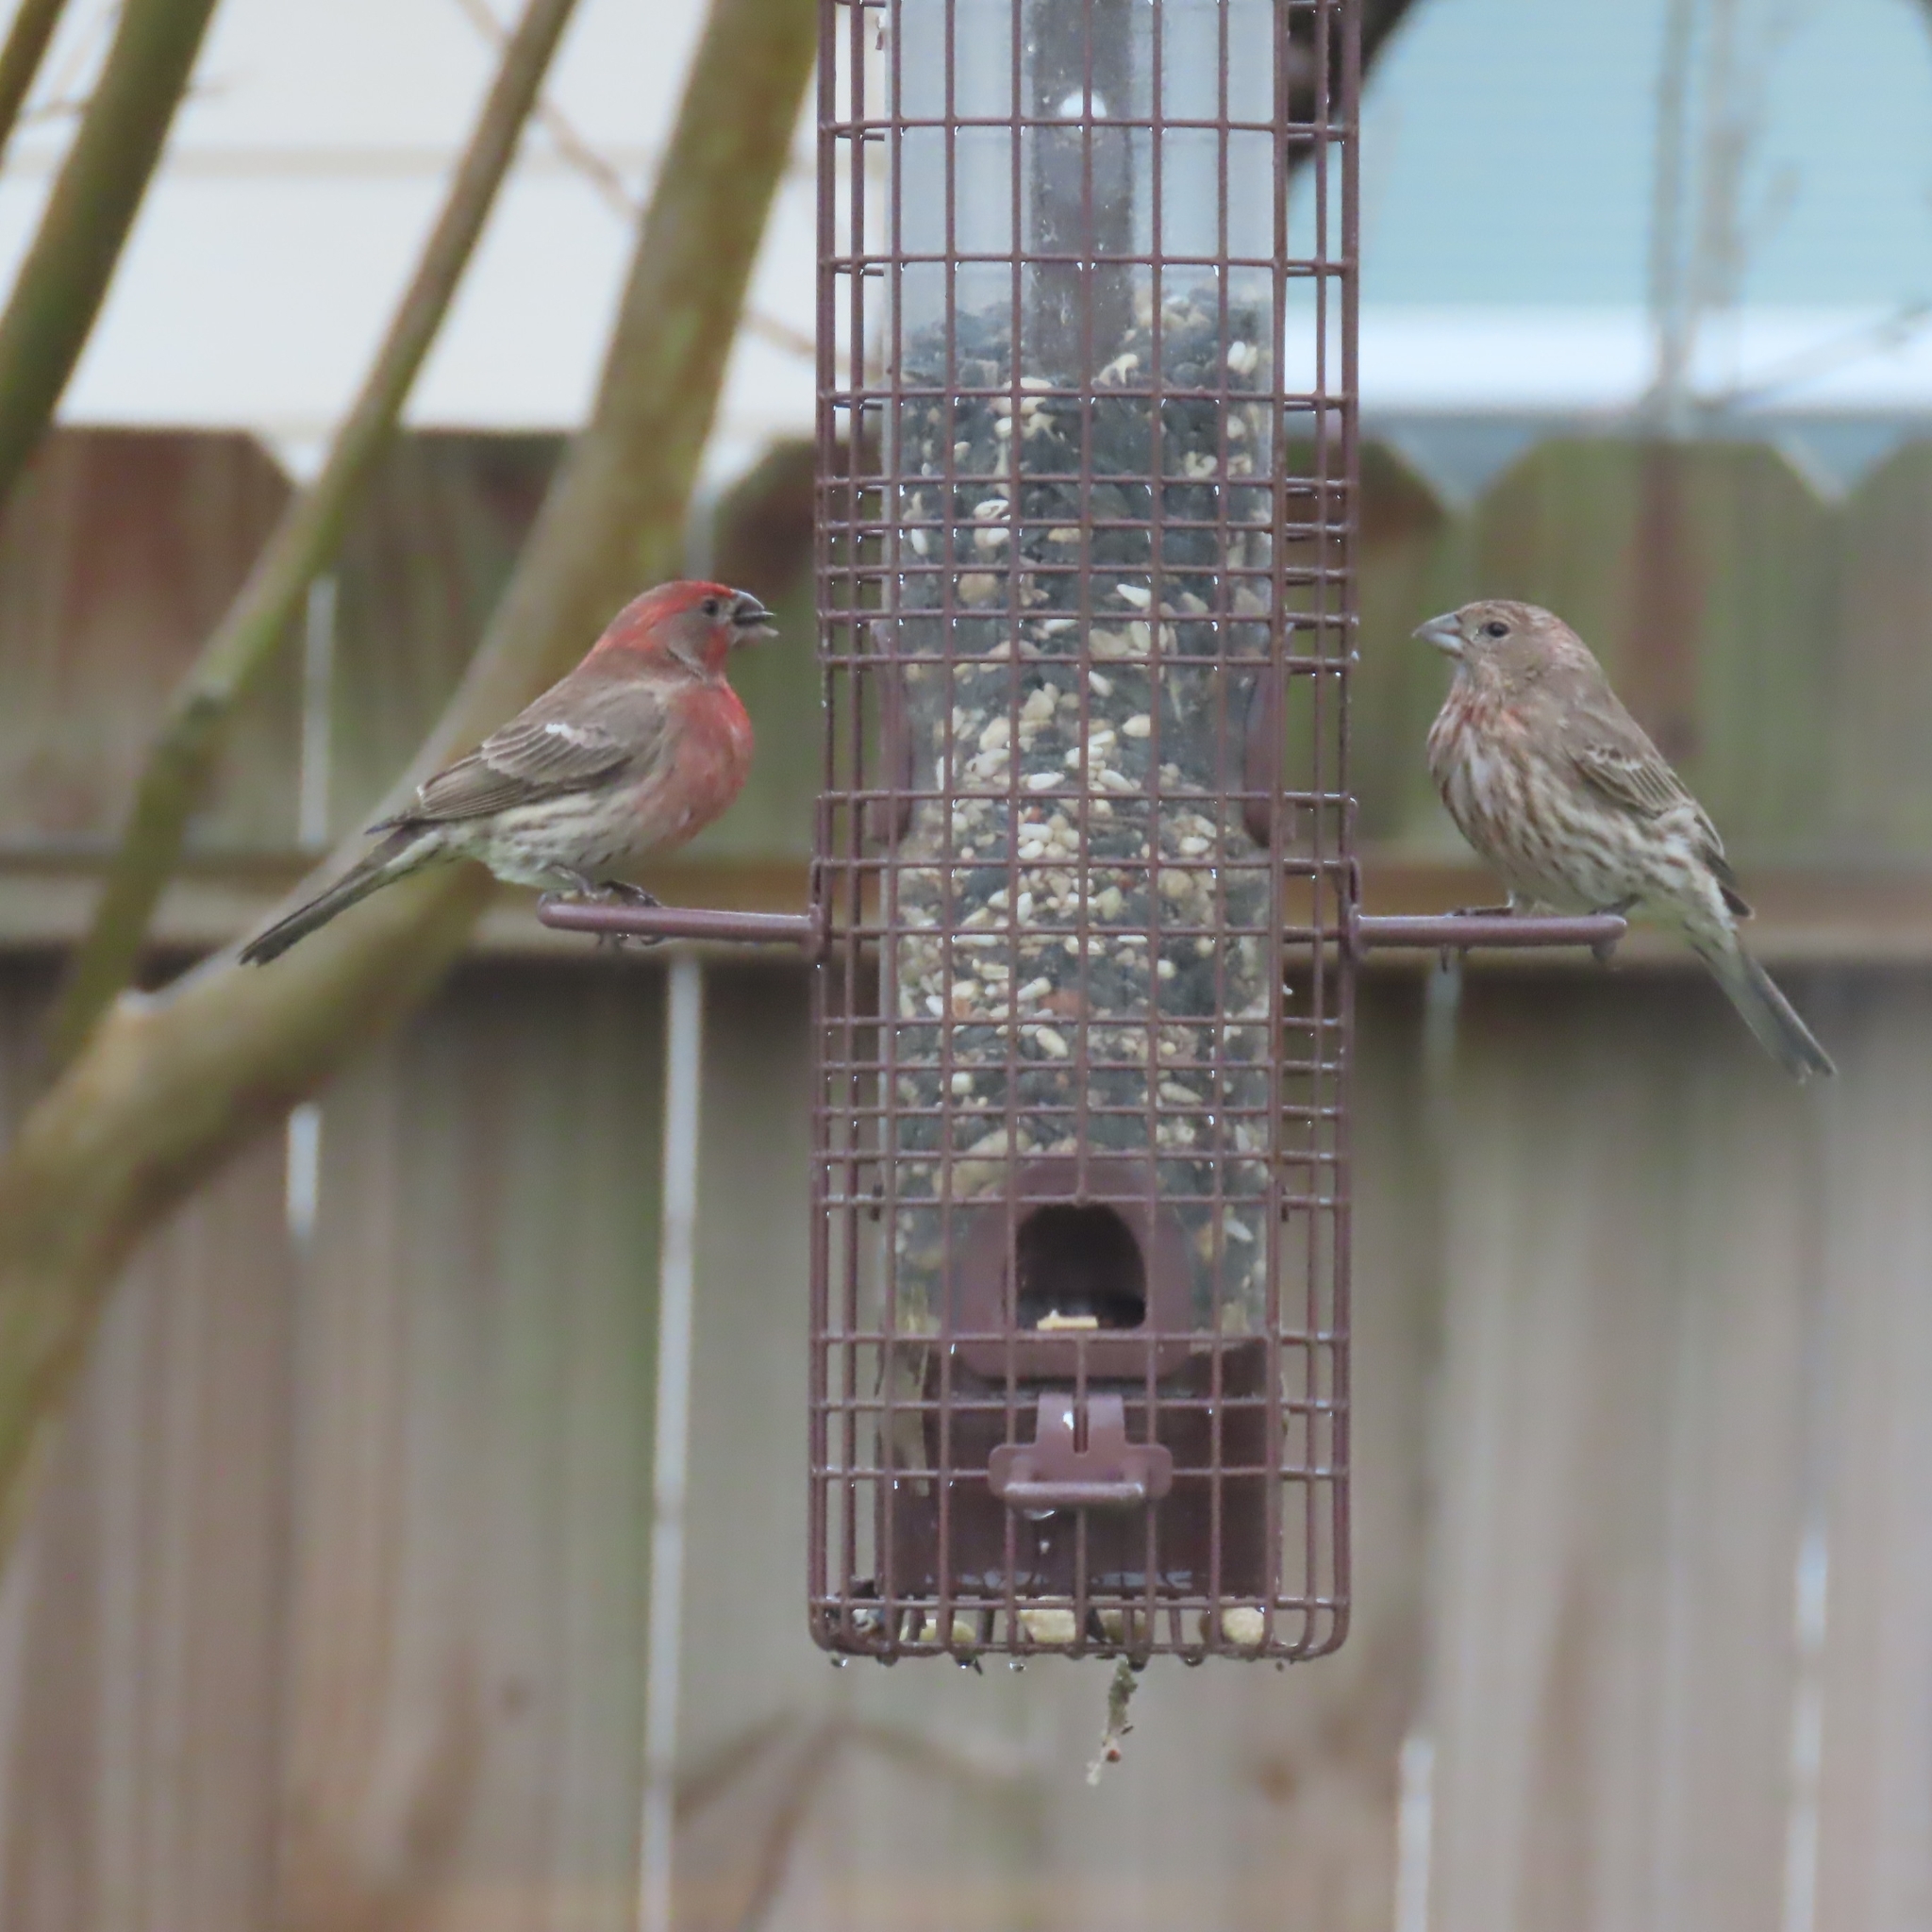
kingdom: Animalia
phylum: Chordata
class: Aves
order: Passeriformes
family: Fringillidae
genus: Haemorhous
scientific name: Haemorhous mexicanus
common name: House finch
